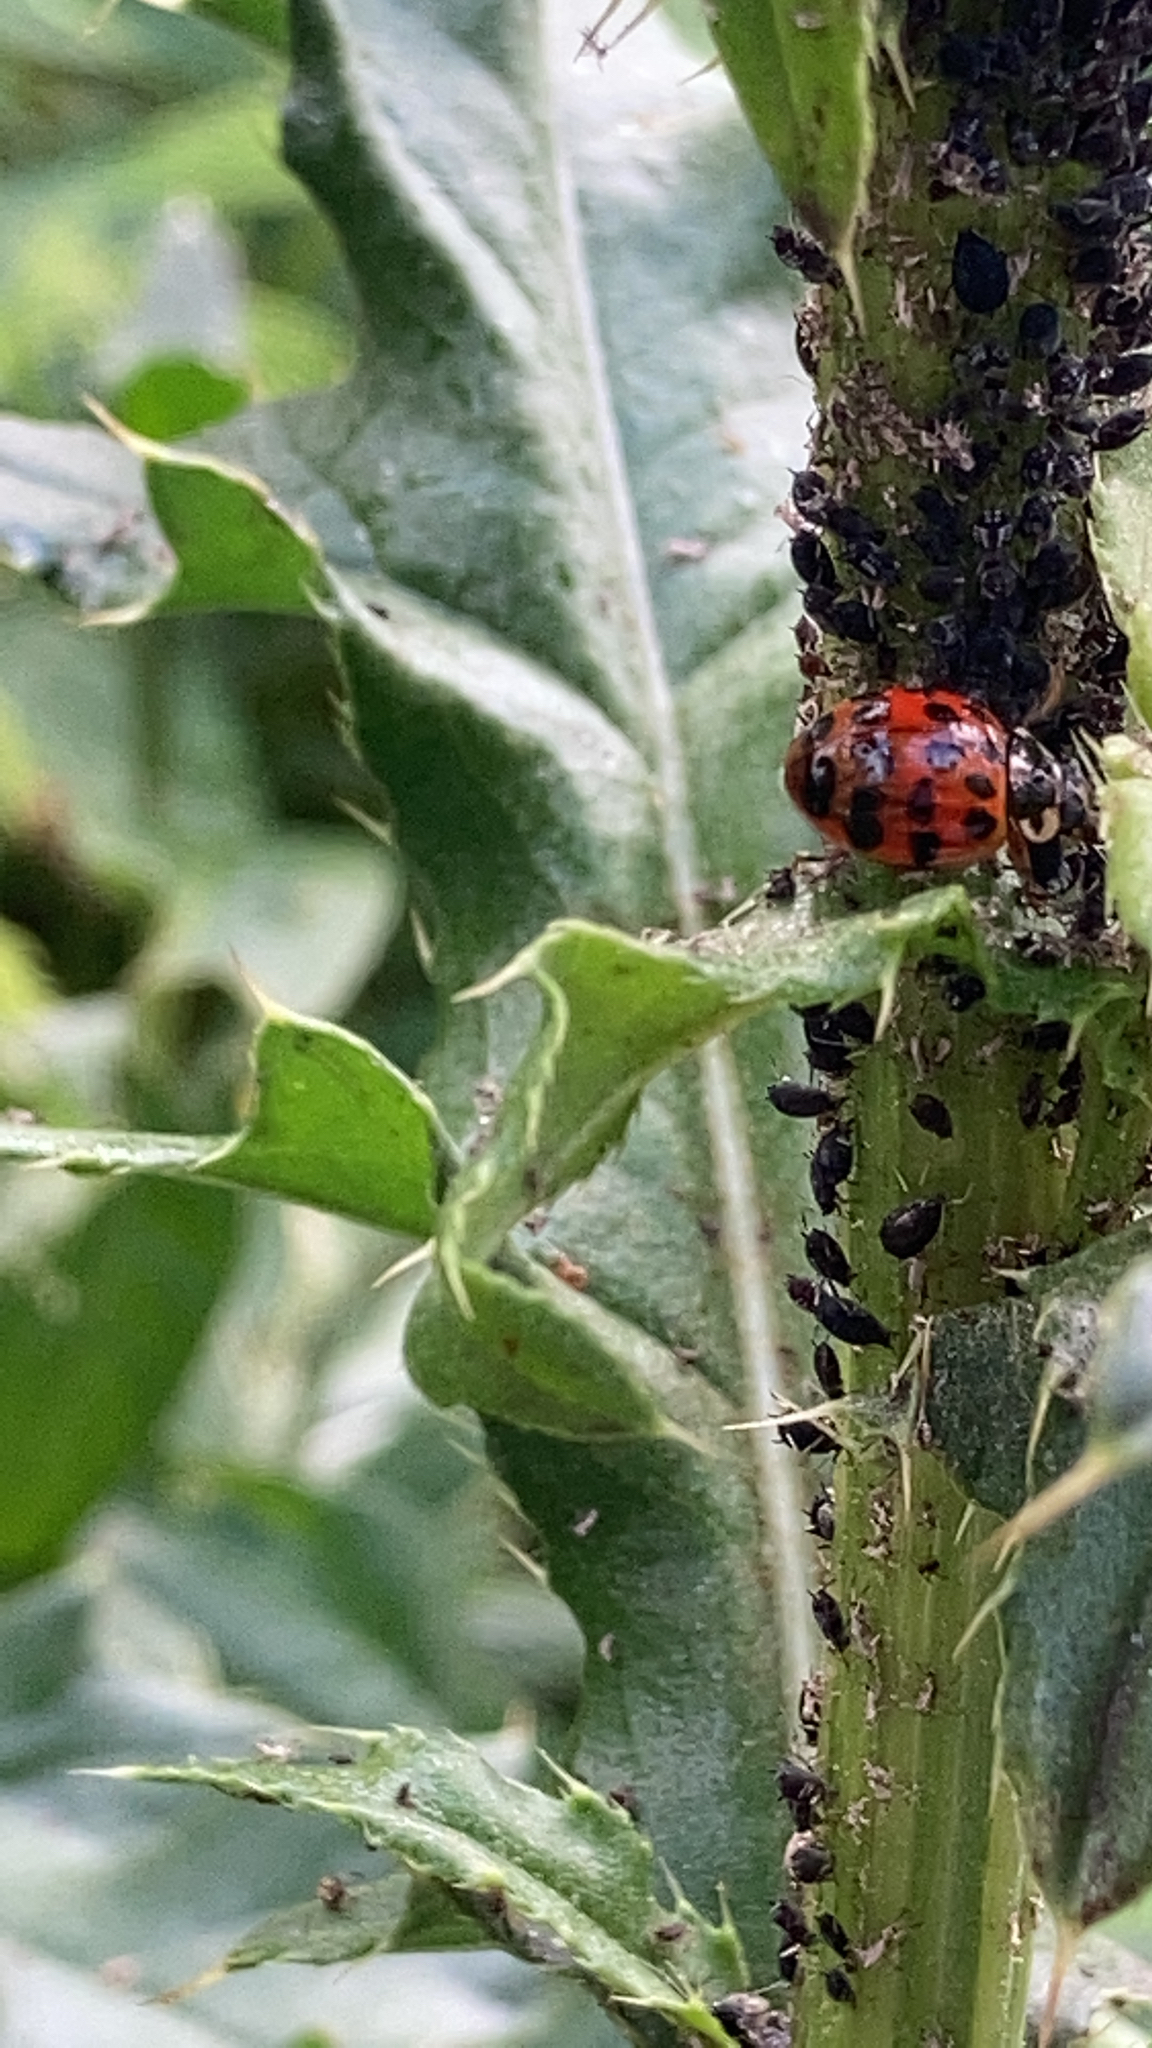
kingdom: Animalia
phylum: Arthropoda
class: Insecta
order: Coleoptera
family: Coccinellidae
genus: Harmonia
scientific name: Harmonia axyridis
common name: Harlequin ladybird
